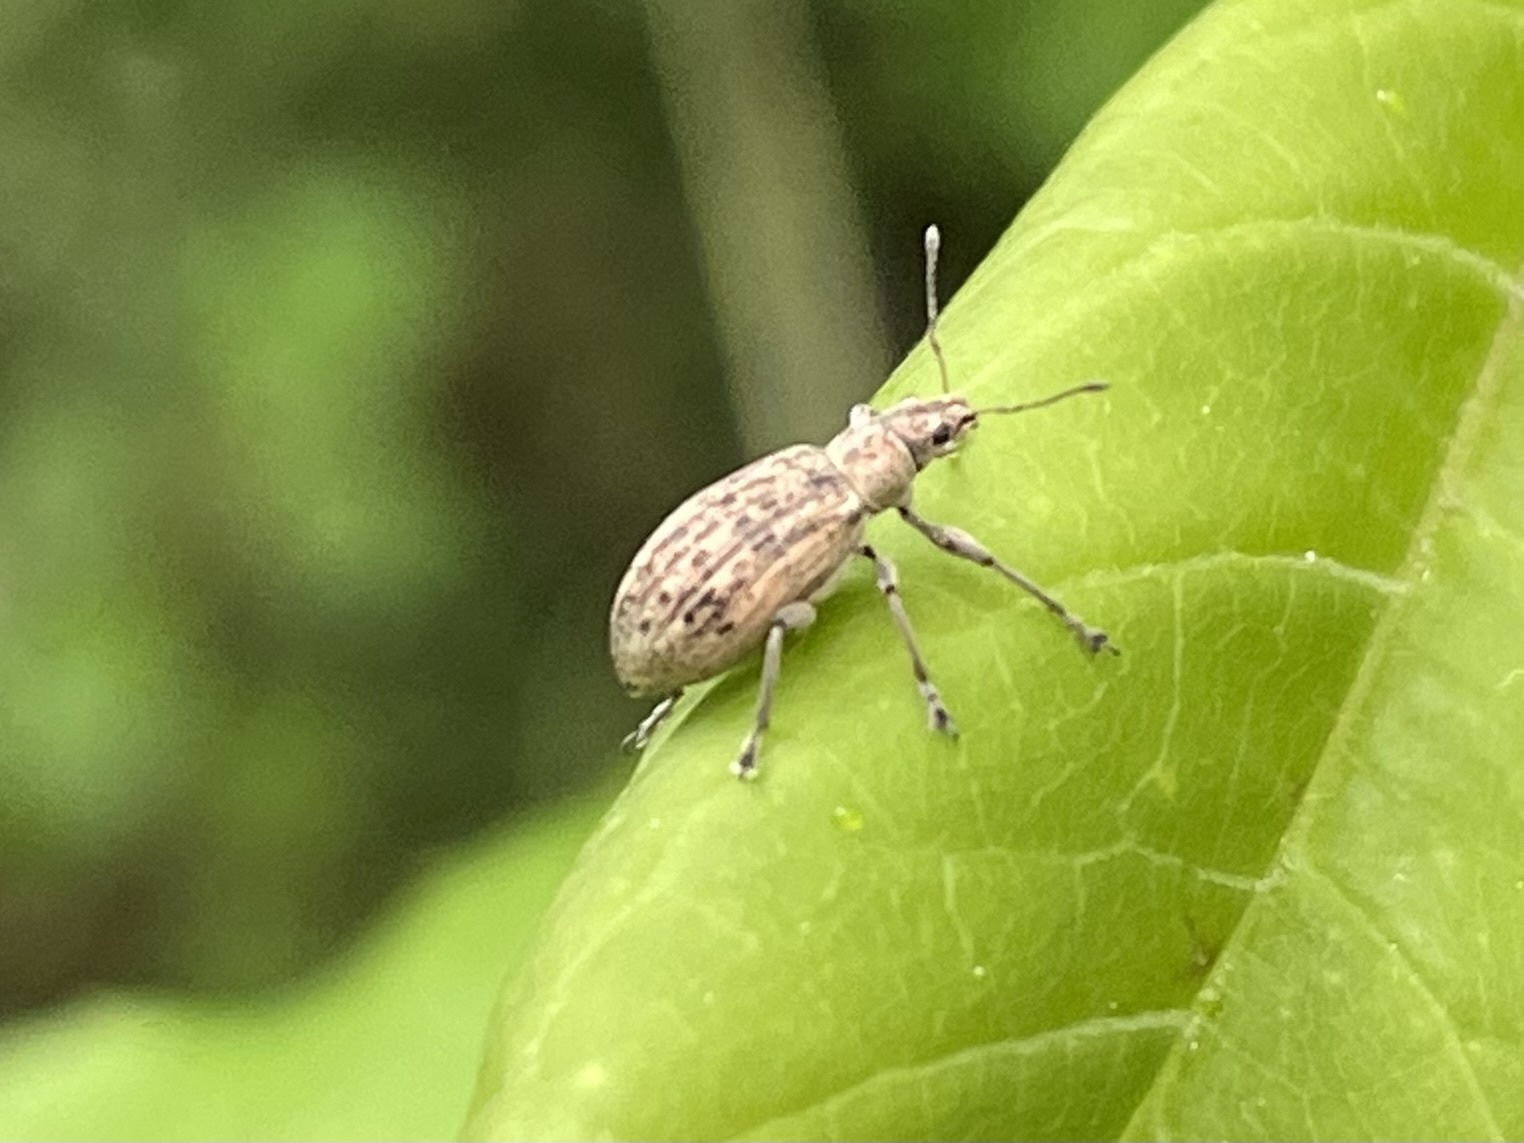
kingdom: Animalia
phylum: Arthropoda
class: Insecta
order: Coleoptera
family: Curculionidae
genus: Polydrusus
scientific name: Polydrusus cervinus
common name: Weevil
